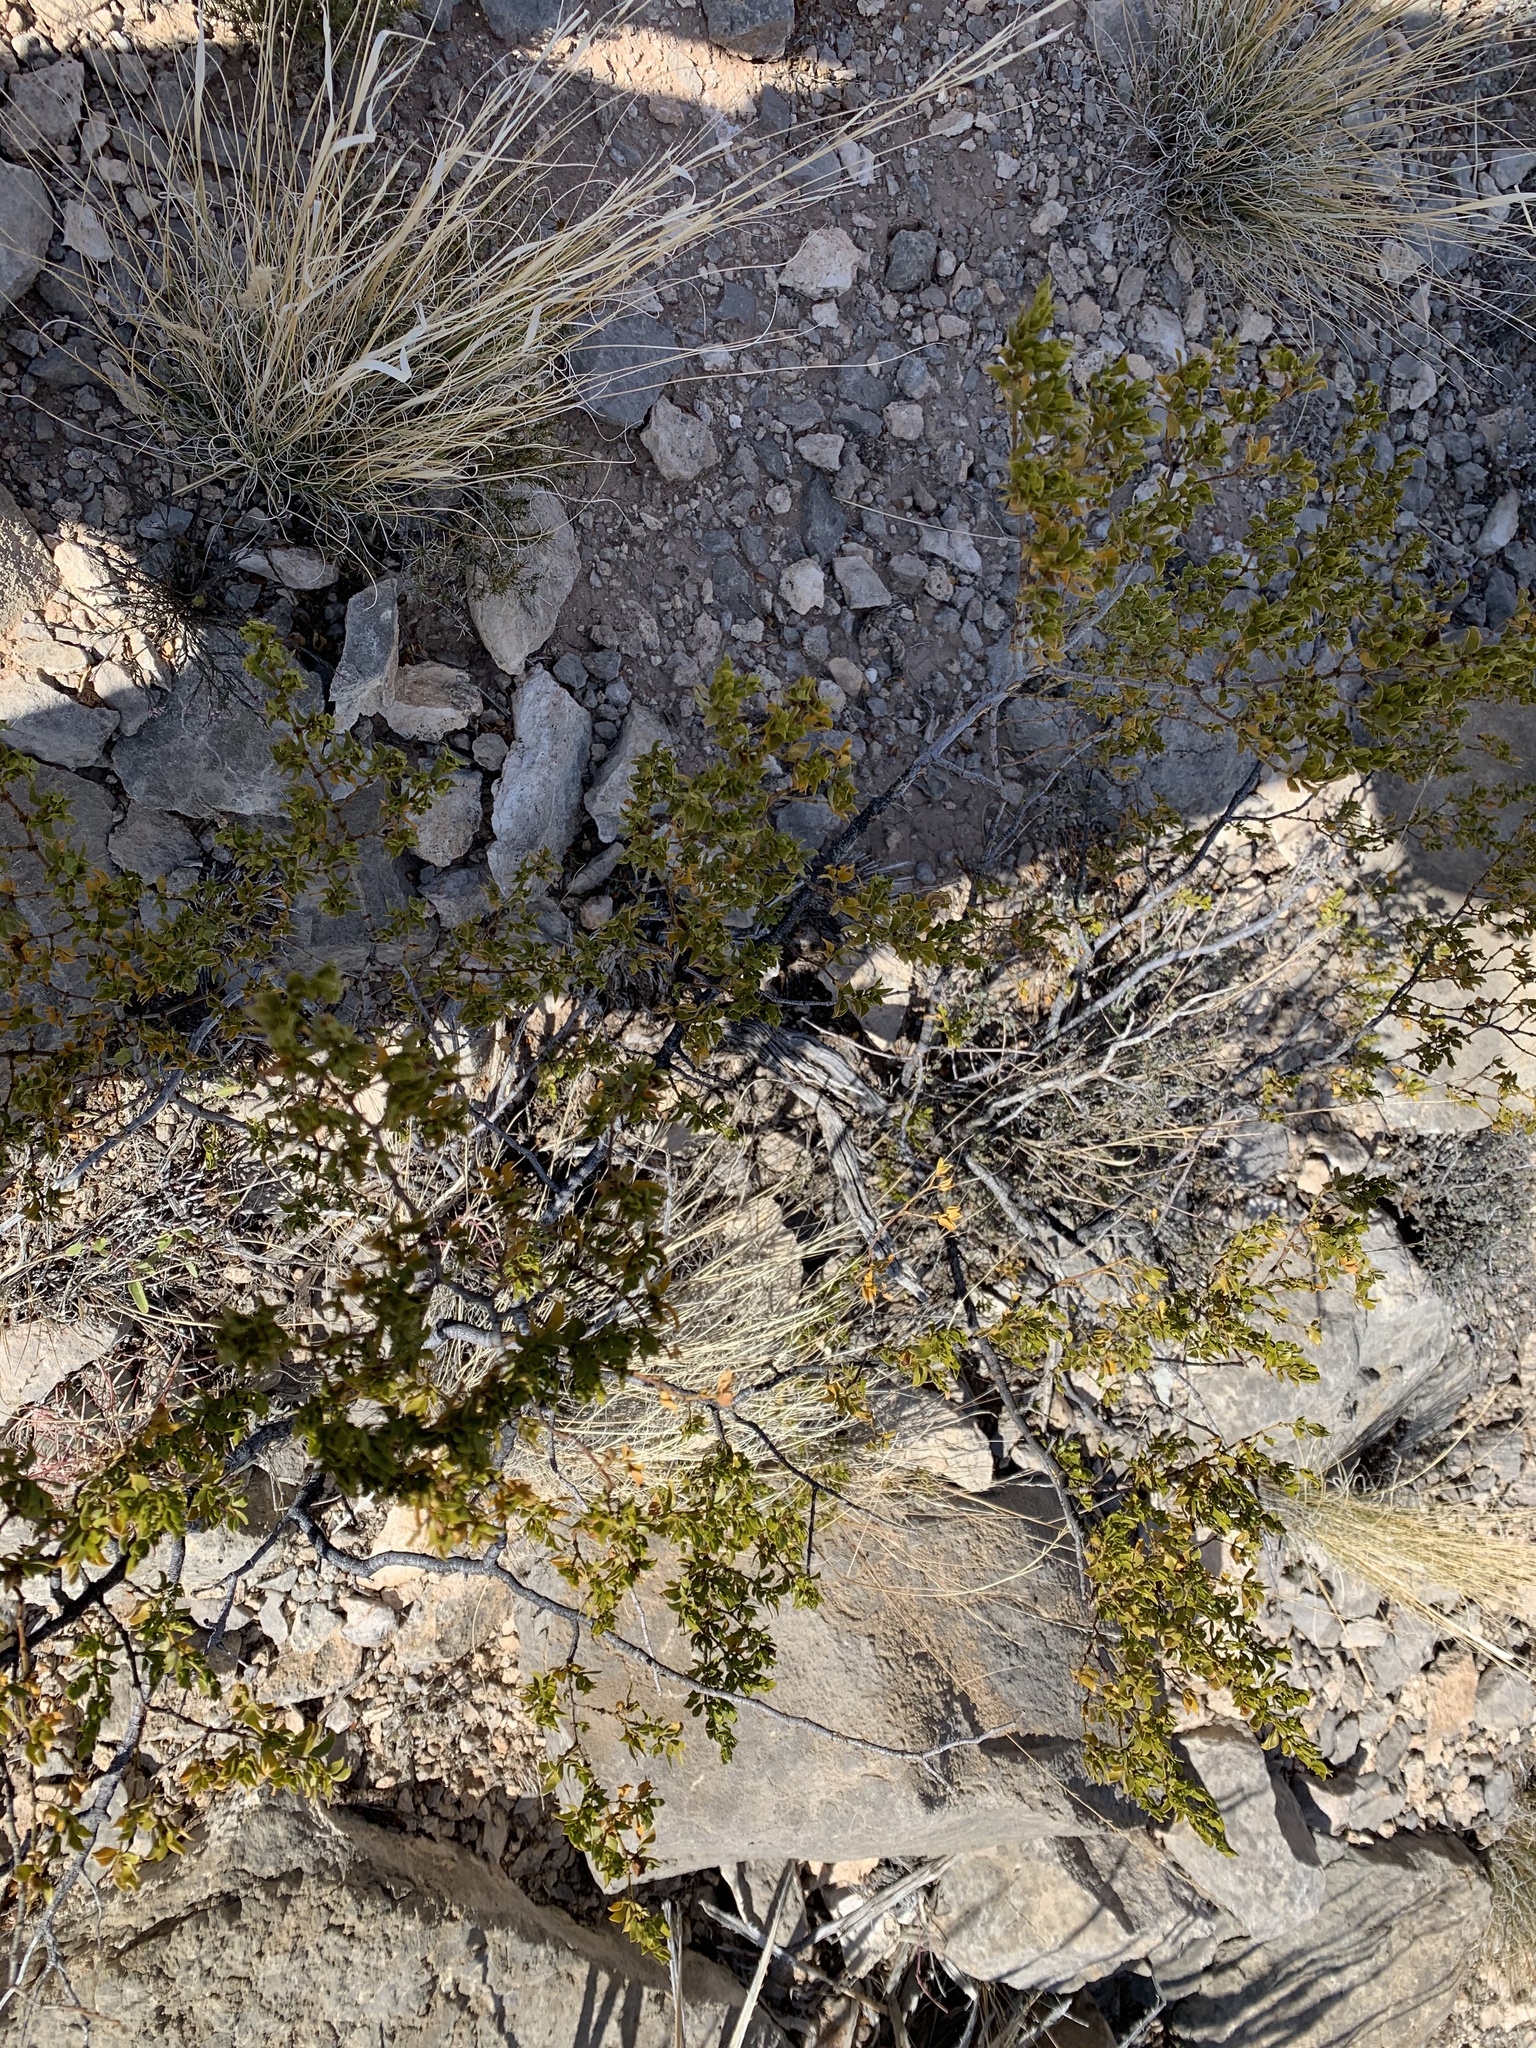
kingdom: Plantae
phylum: Tracheophyta
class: Magnoliopsida
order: Zygophyllales
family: Zygophyllaceae
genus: Larrea
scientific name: Larrea tridentata
